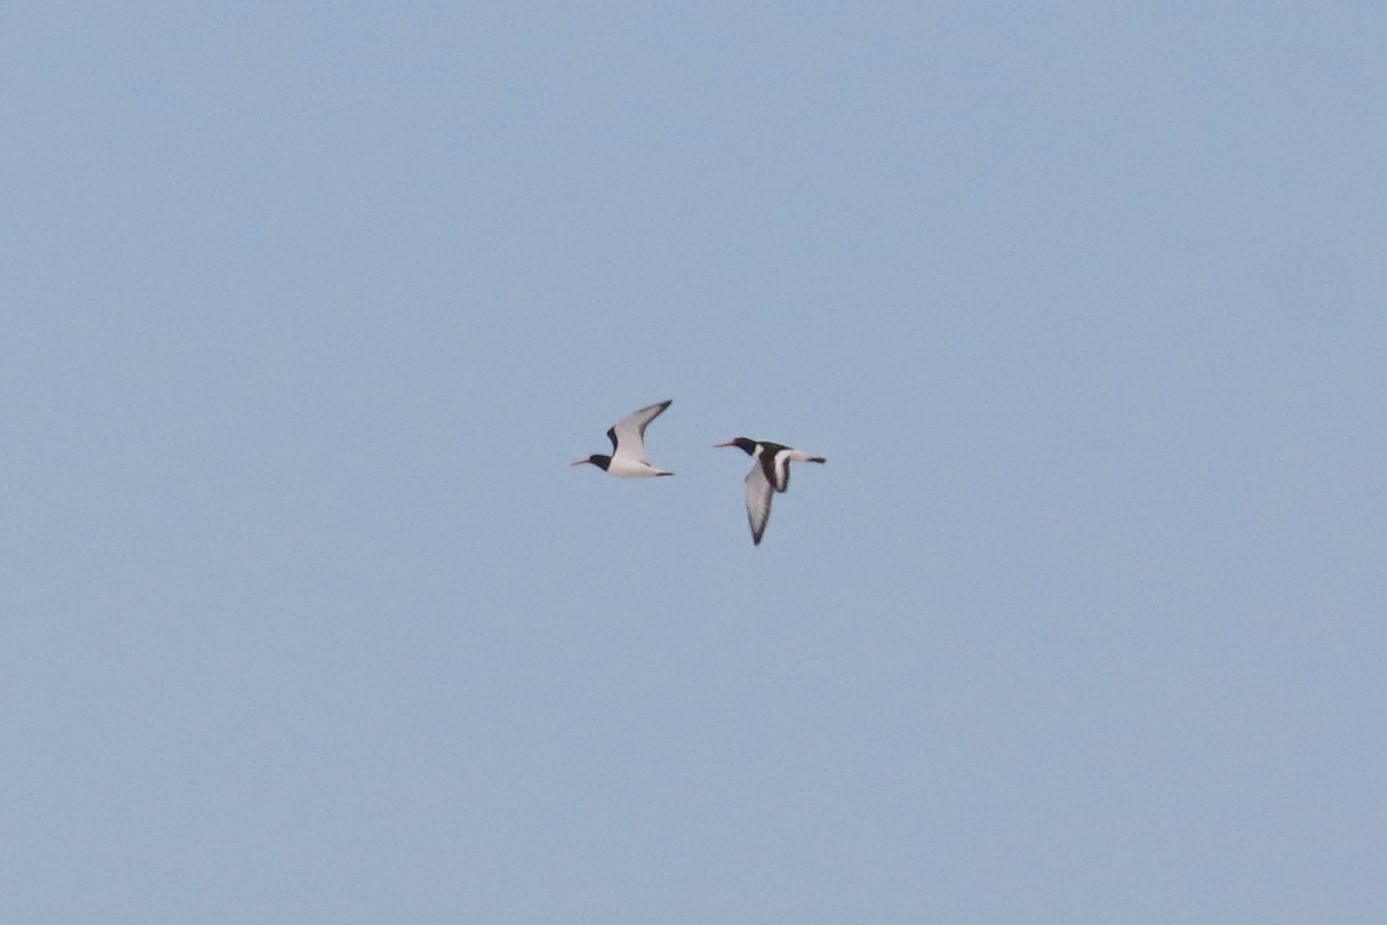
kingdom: Animalia
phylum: Chordata
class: Aves
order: Charadriiformes
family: Haematopodidae
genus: Haematopus
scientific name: Haematopus ostralegus
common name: Eurasian oystercatcher
